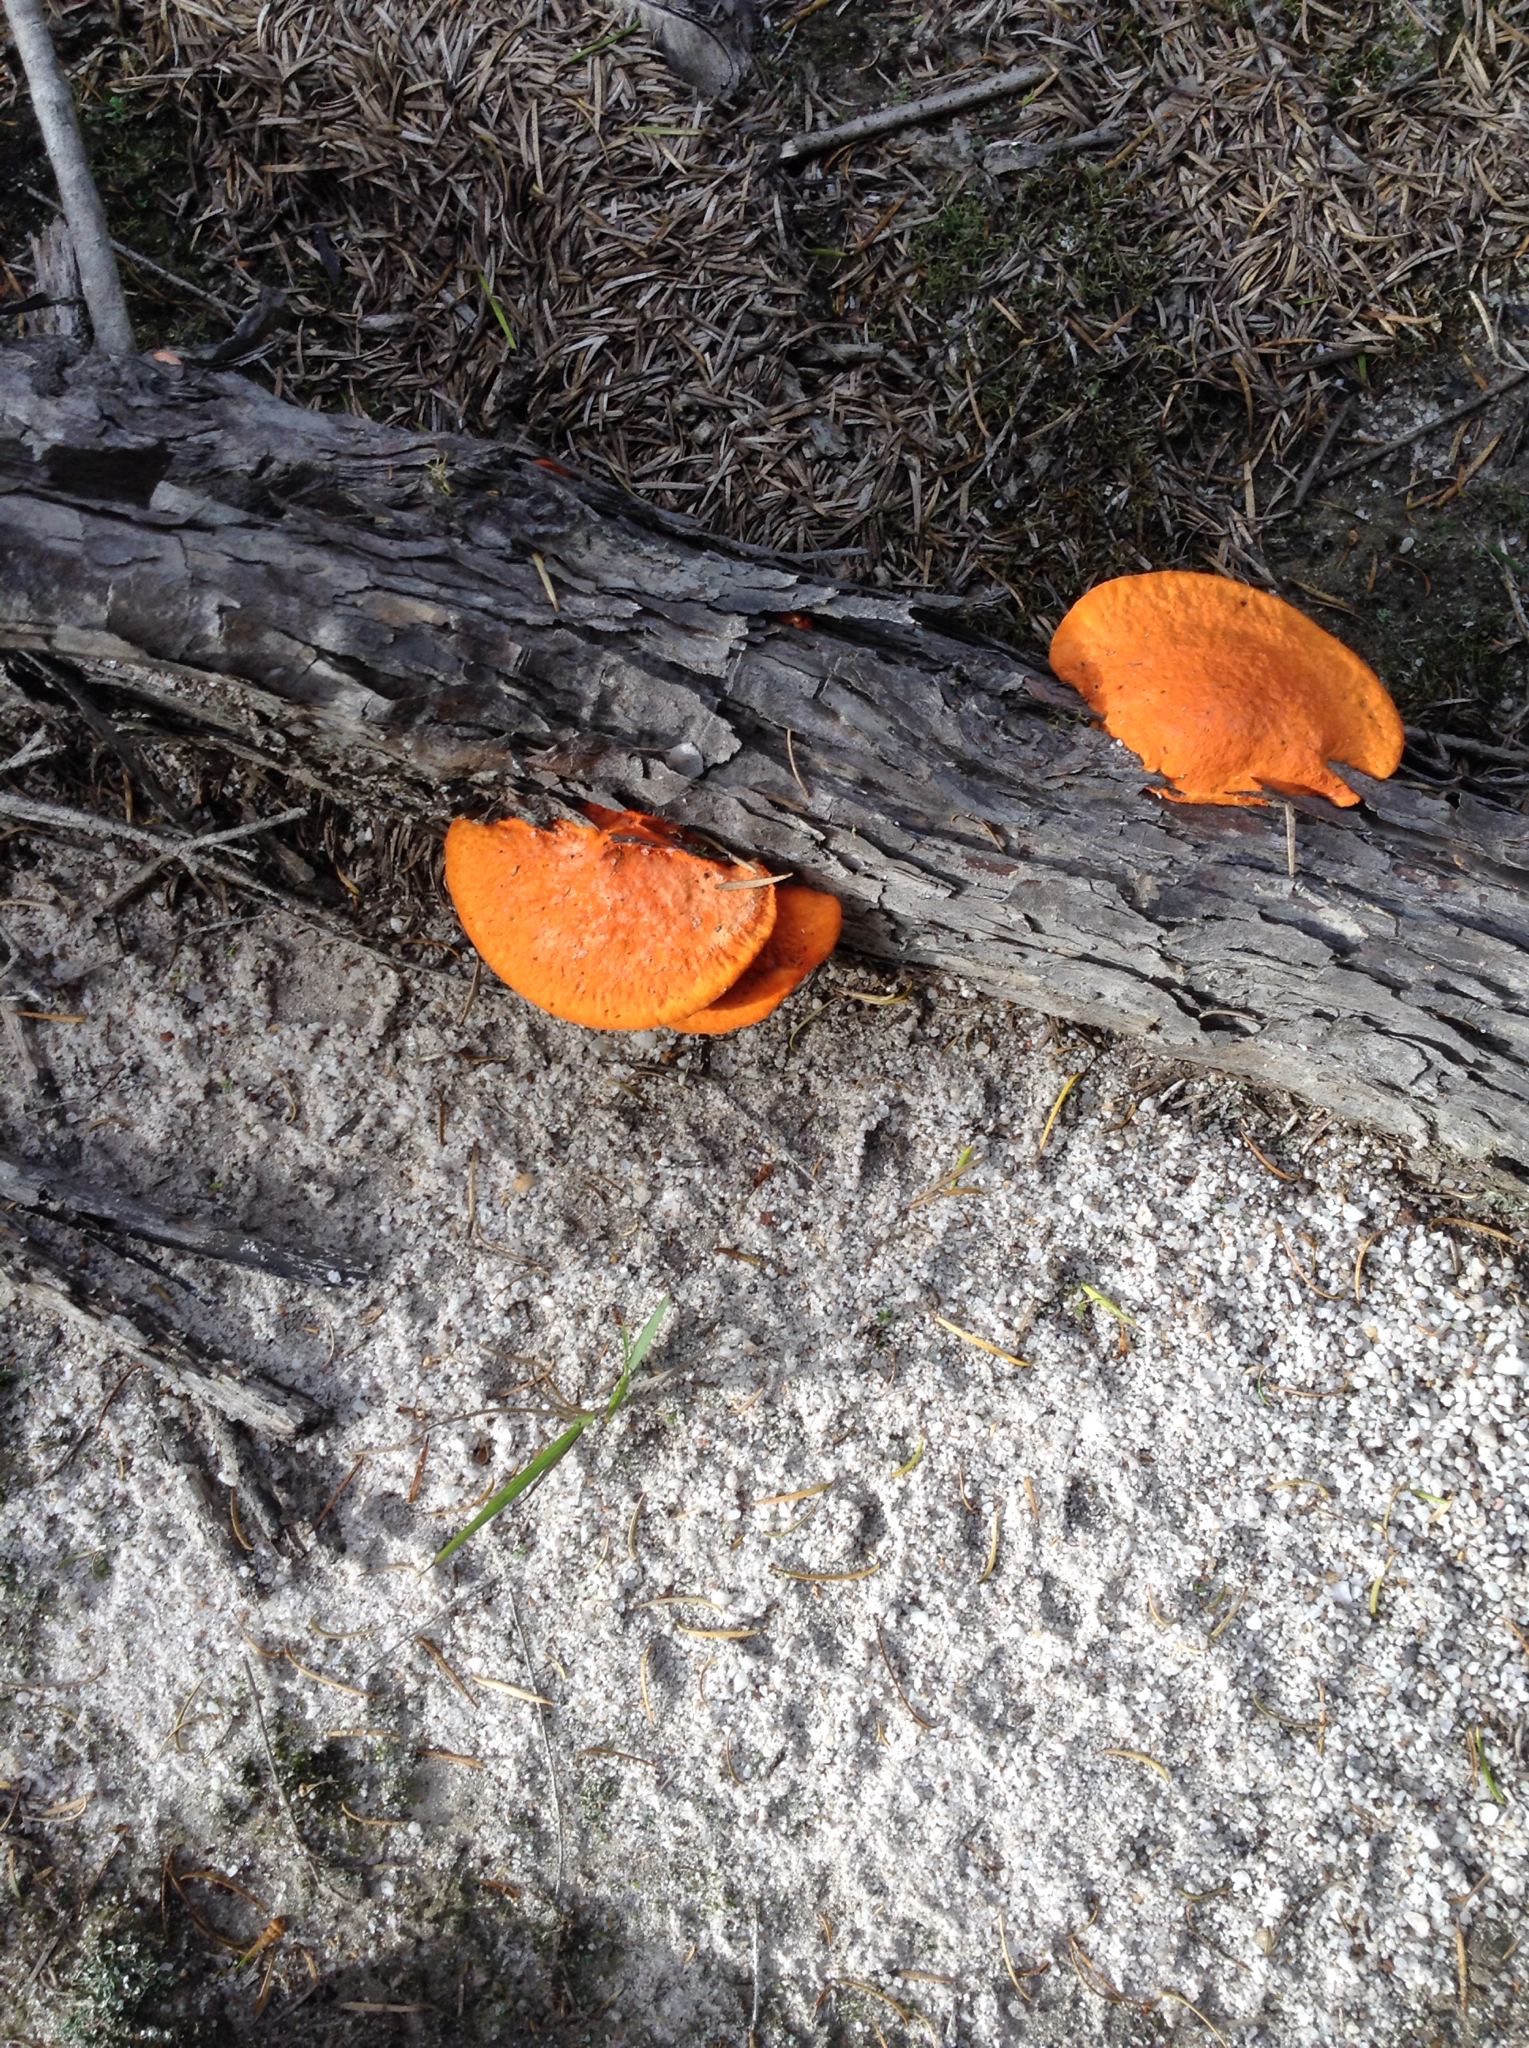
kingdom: Fungi
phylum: Basidiomycota
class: Agaricomycetes
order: Polyporales
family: Polyporaceae
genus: Trametes
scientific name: Trametes coccinea
